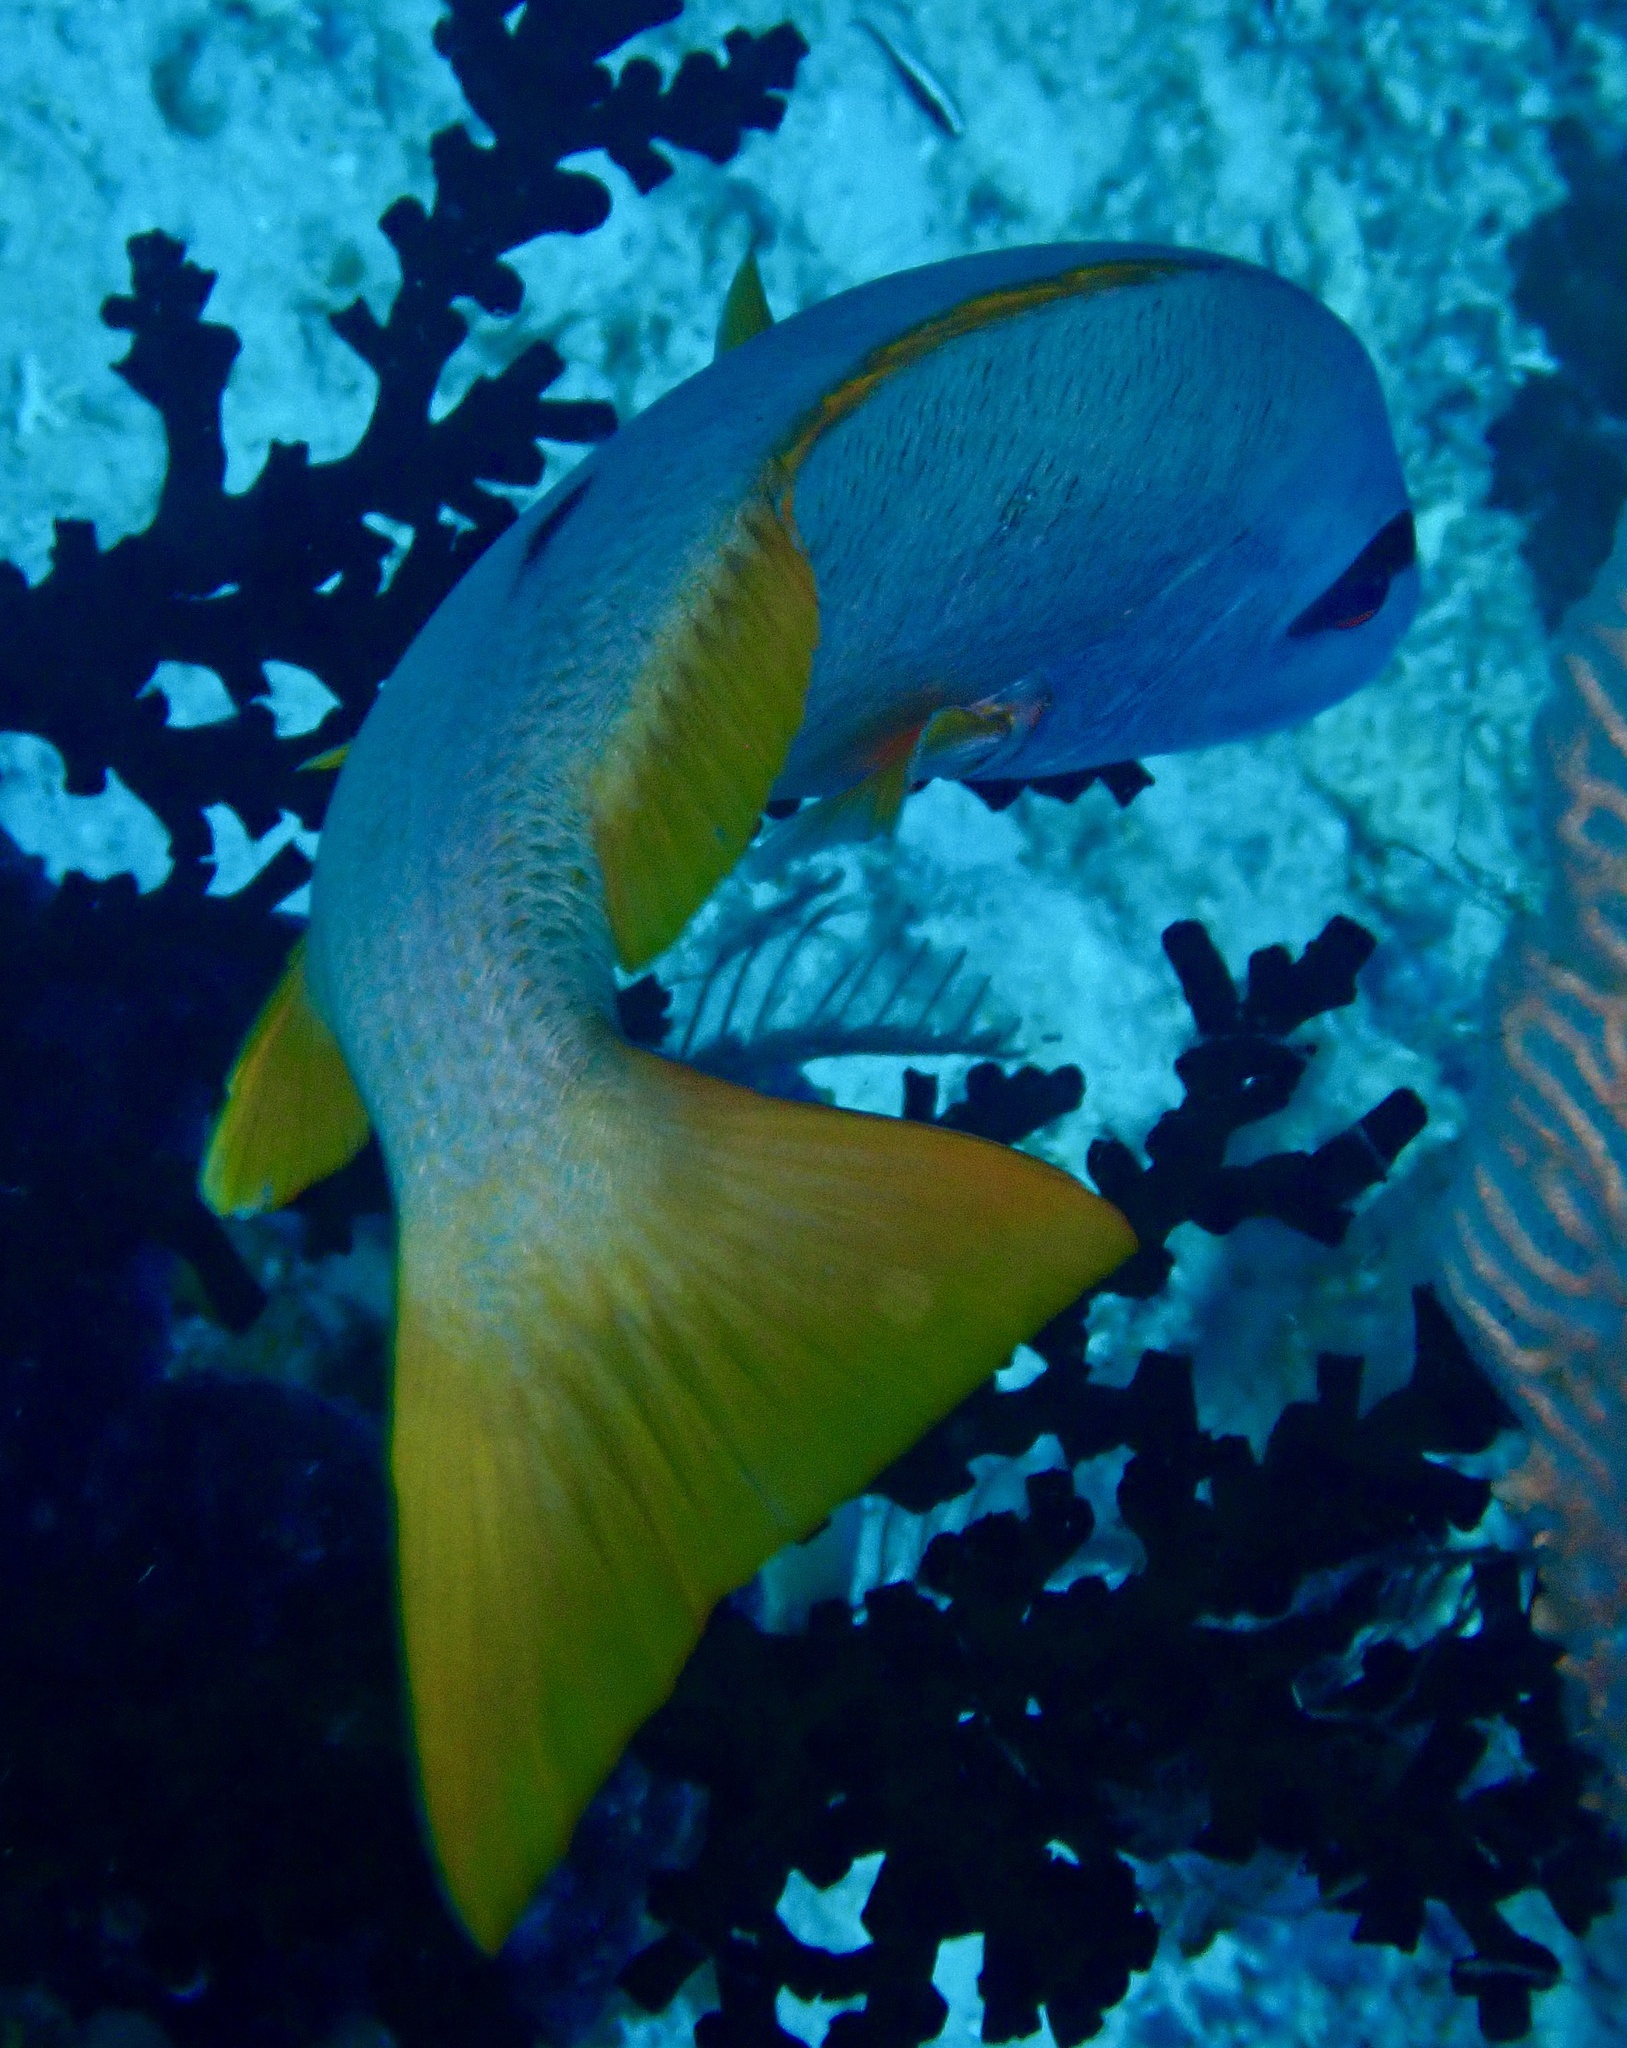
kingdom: Animalia
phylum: Chordata
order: Perciformes
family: Lutjanidae
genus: Lutjanus
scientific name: Lutjanus monostigma
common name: Onespot snapper
